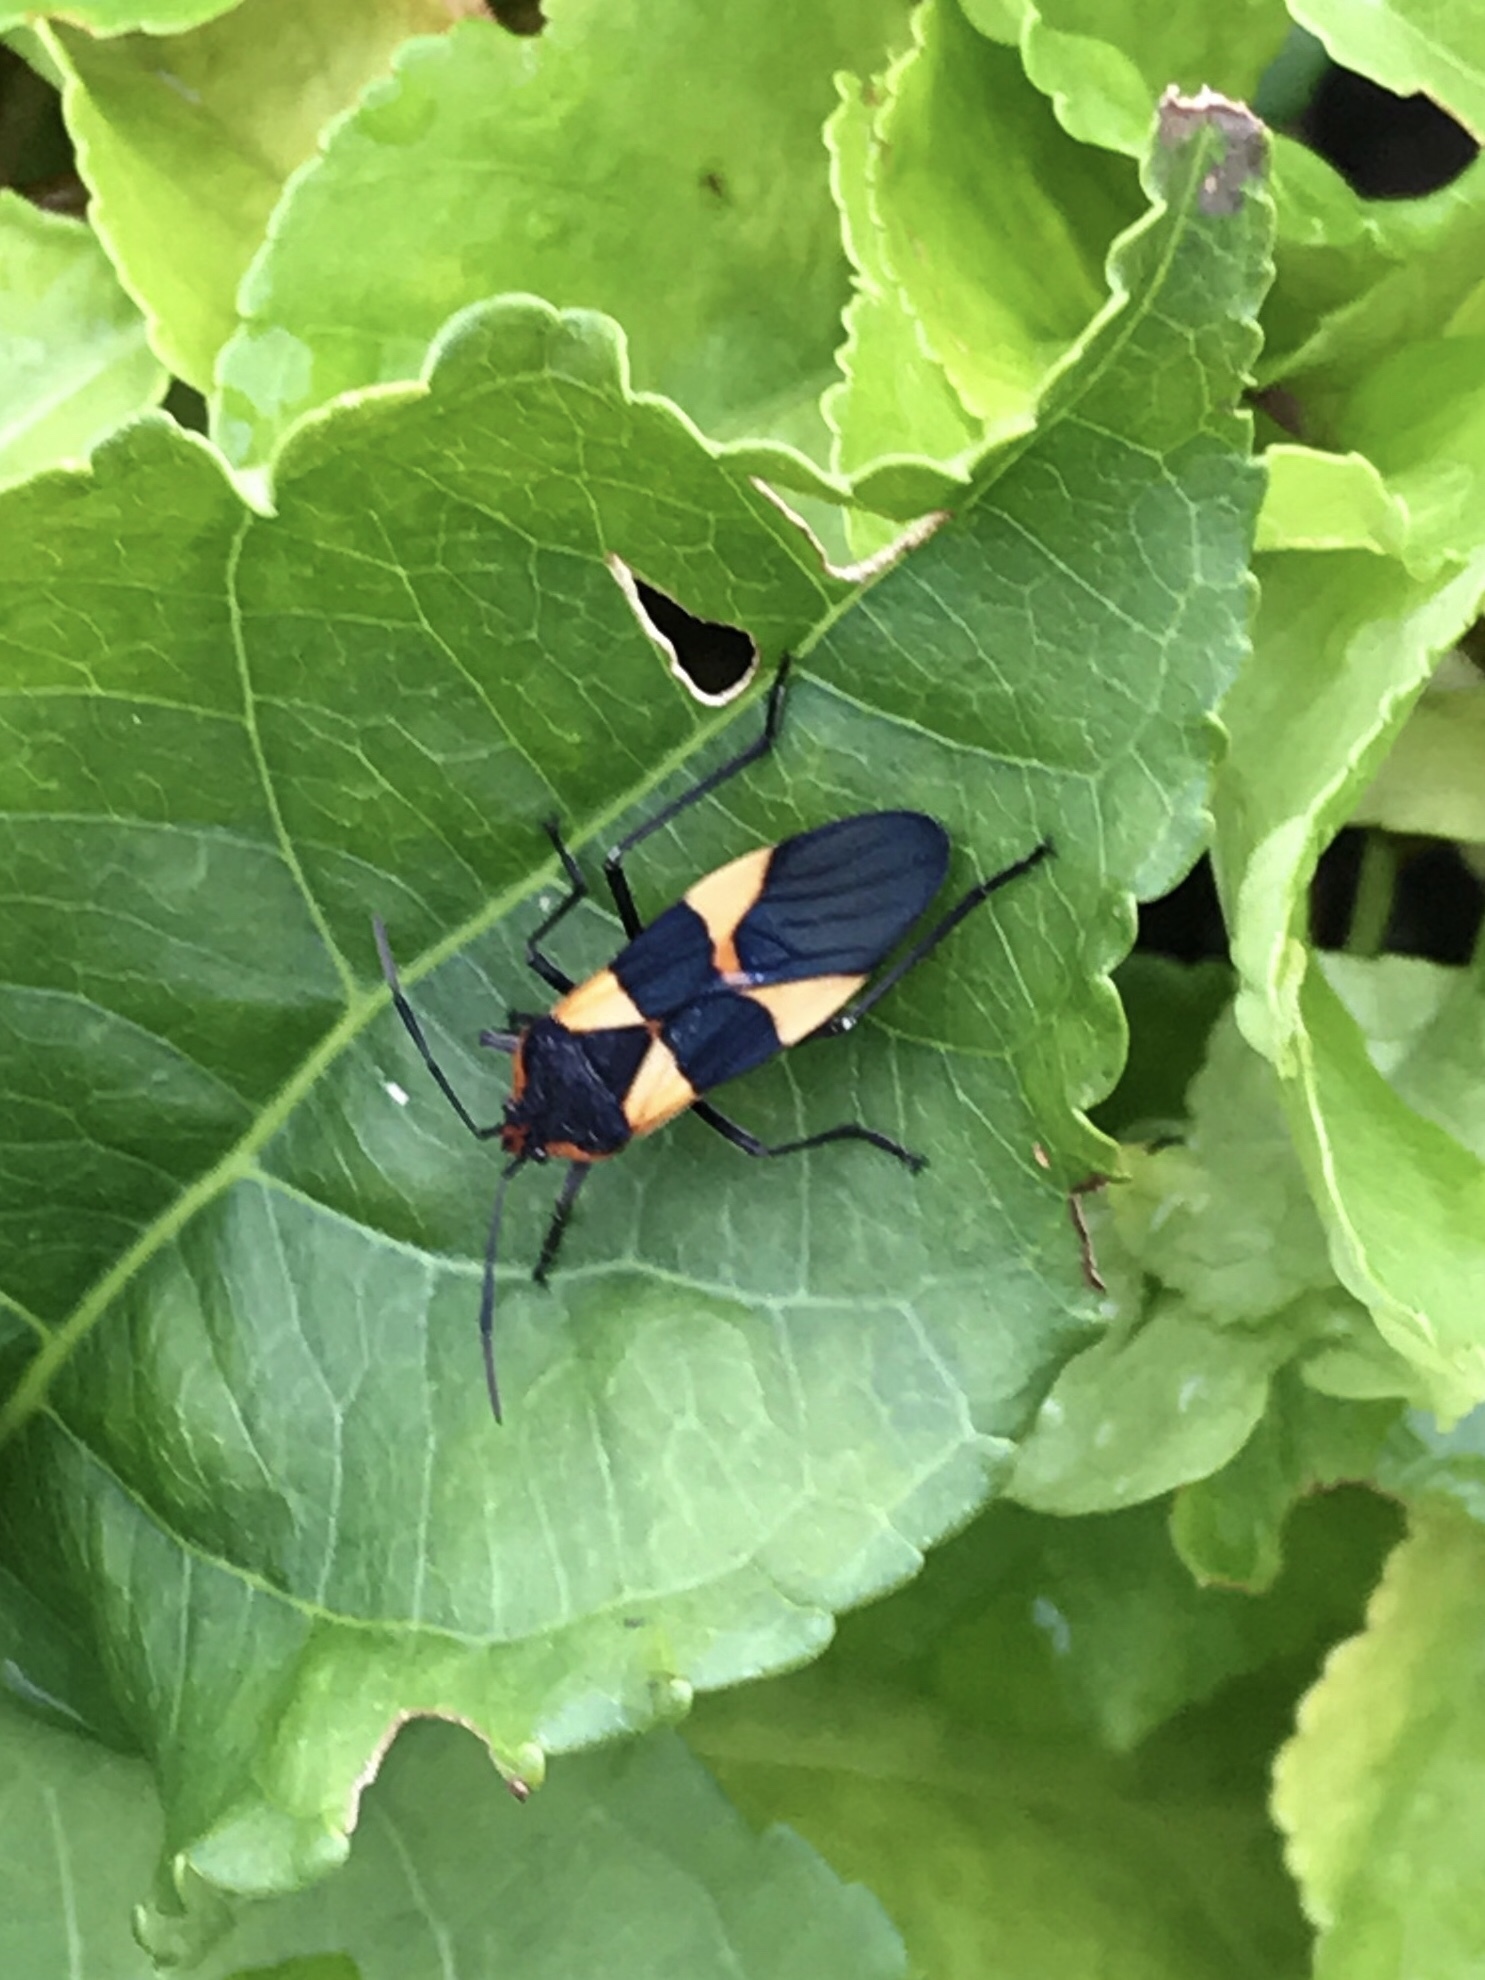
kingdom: Animalia
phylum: Arthropoda
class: Insecta
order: Hemiptera
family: Lygaeidae
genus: Oncopeltus
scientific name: Oncopeltus fasciatus
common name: Large milkweed bug
